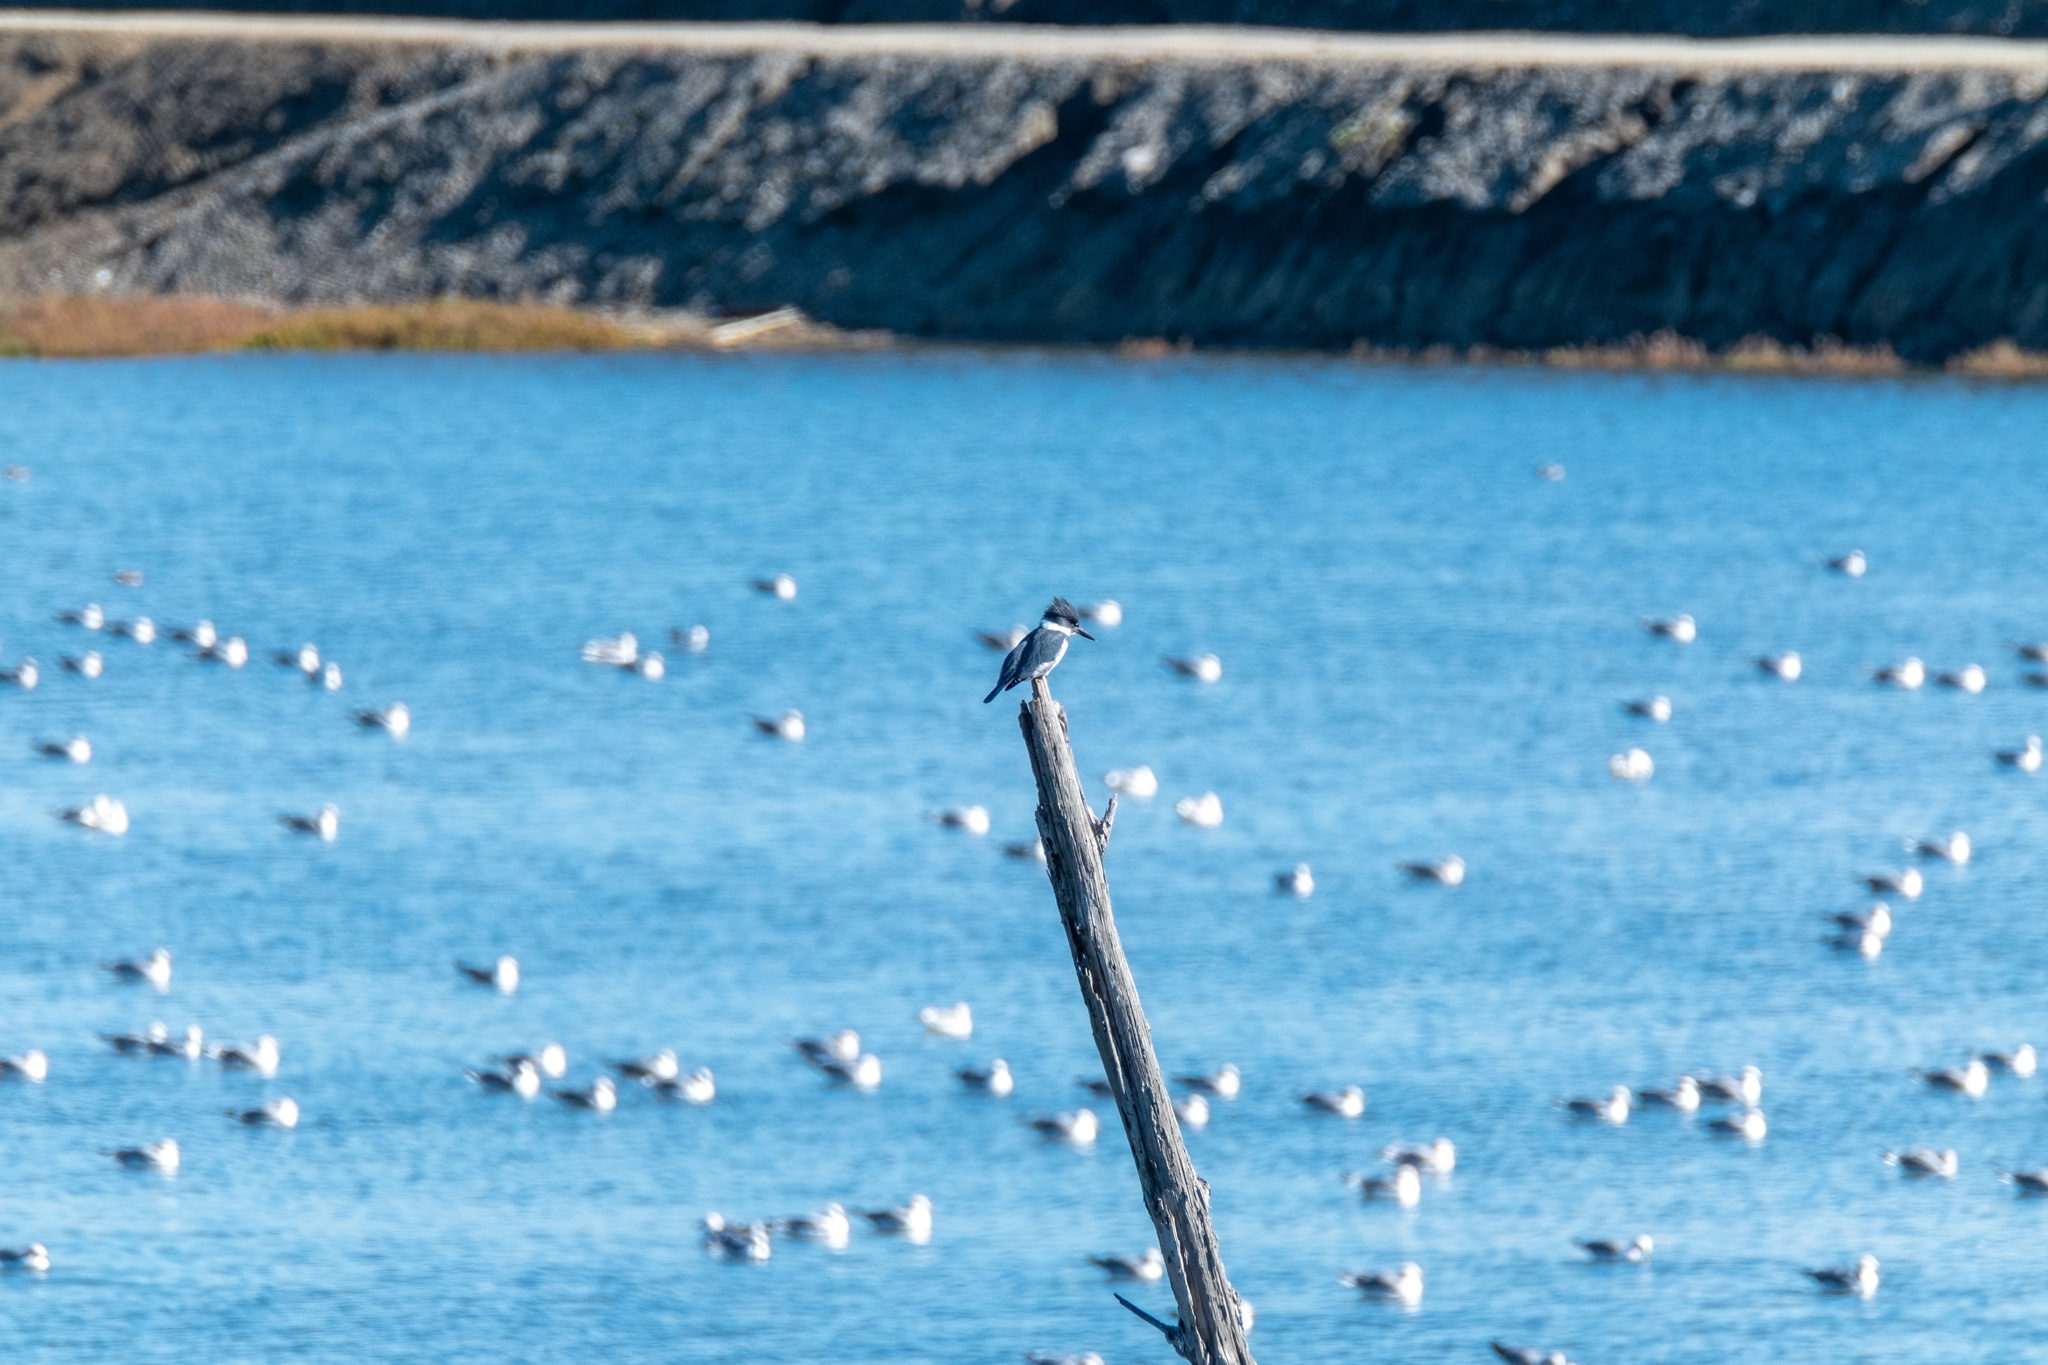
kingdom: Animalia
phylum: Chordata
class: Aves
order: Coraciiformes
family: Alcedinidae
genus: Megaceryle
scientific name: Megaceryle alcyon
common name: Belted kingfisher
